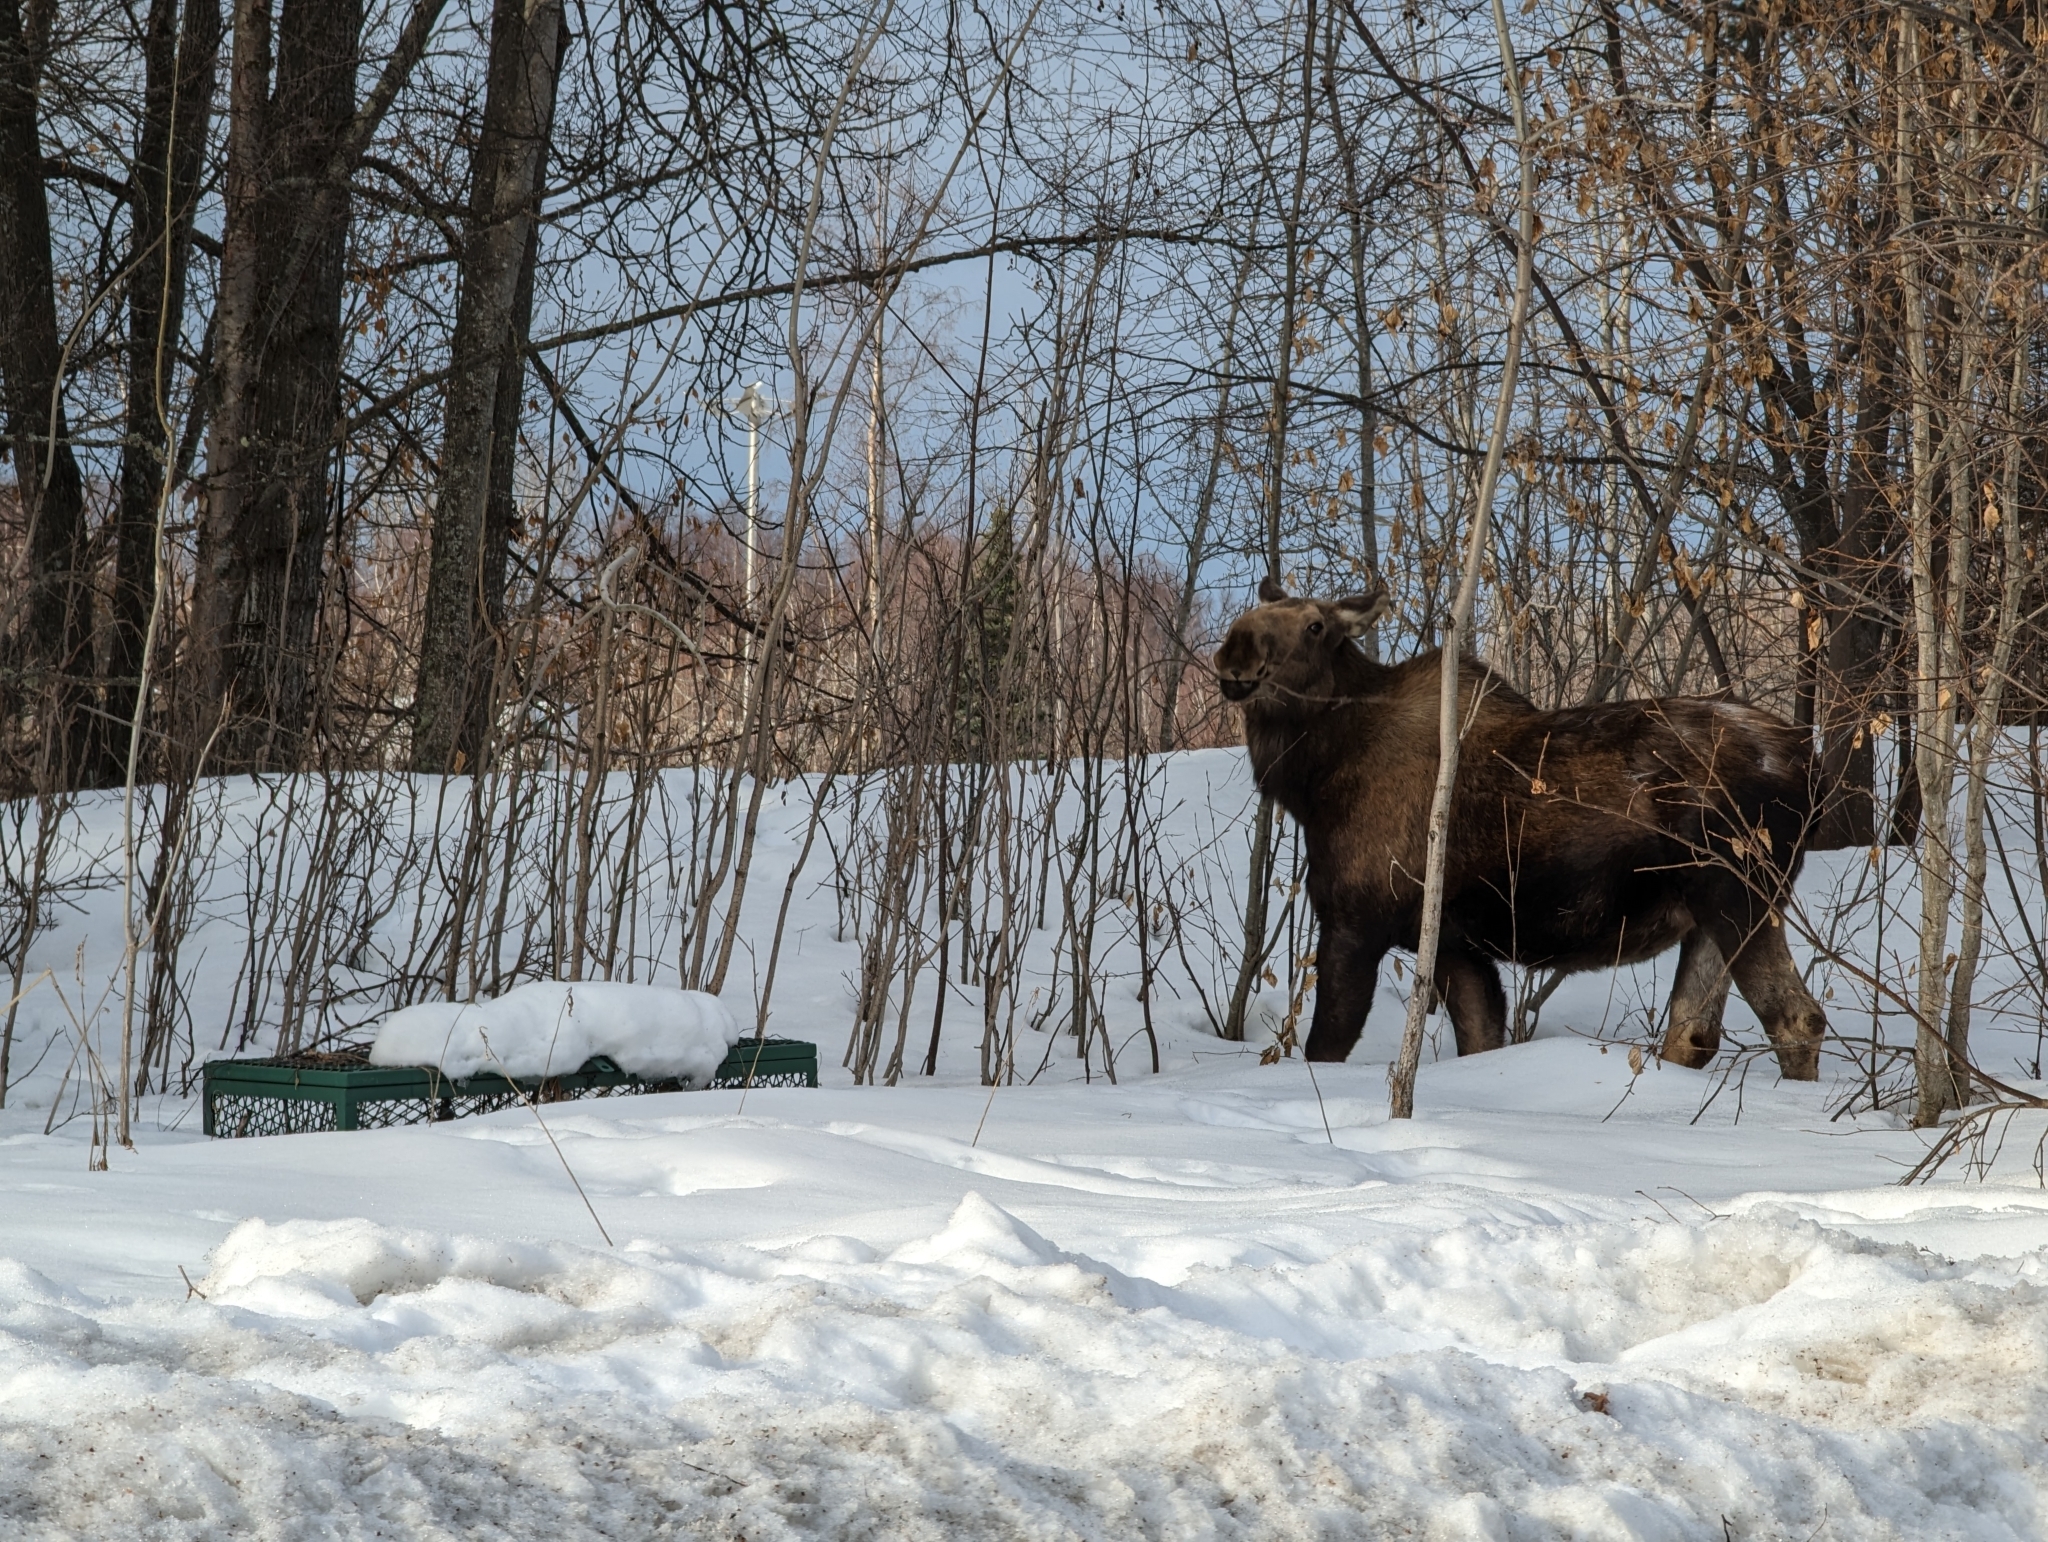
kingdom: Animalia
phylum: Chordata
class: Mammalia
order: Artiodactyla
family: Cervidae
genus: Alces
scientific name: Alces americanus
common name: Moose
